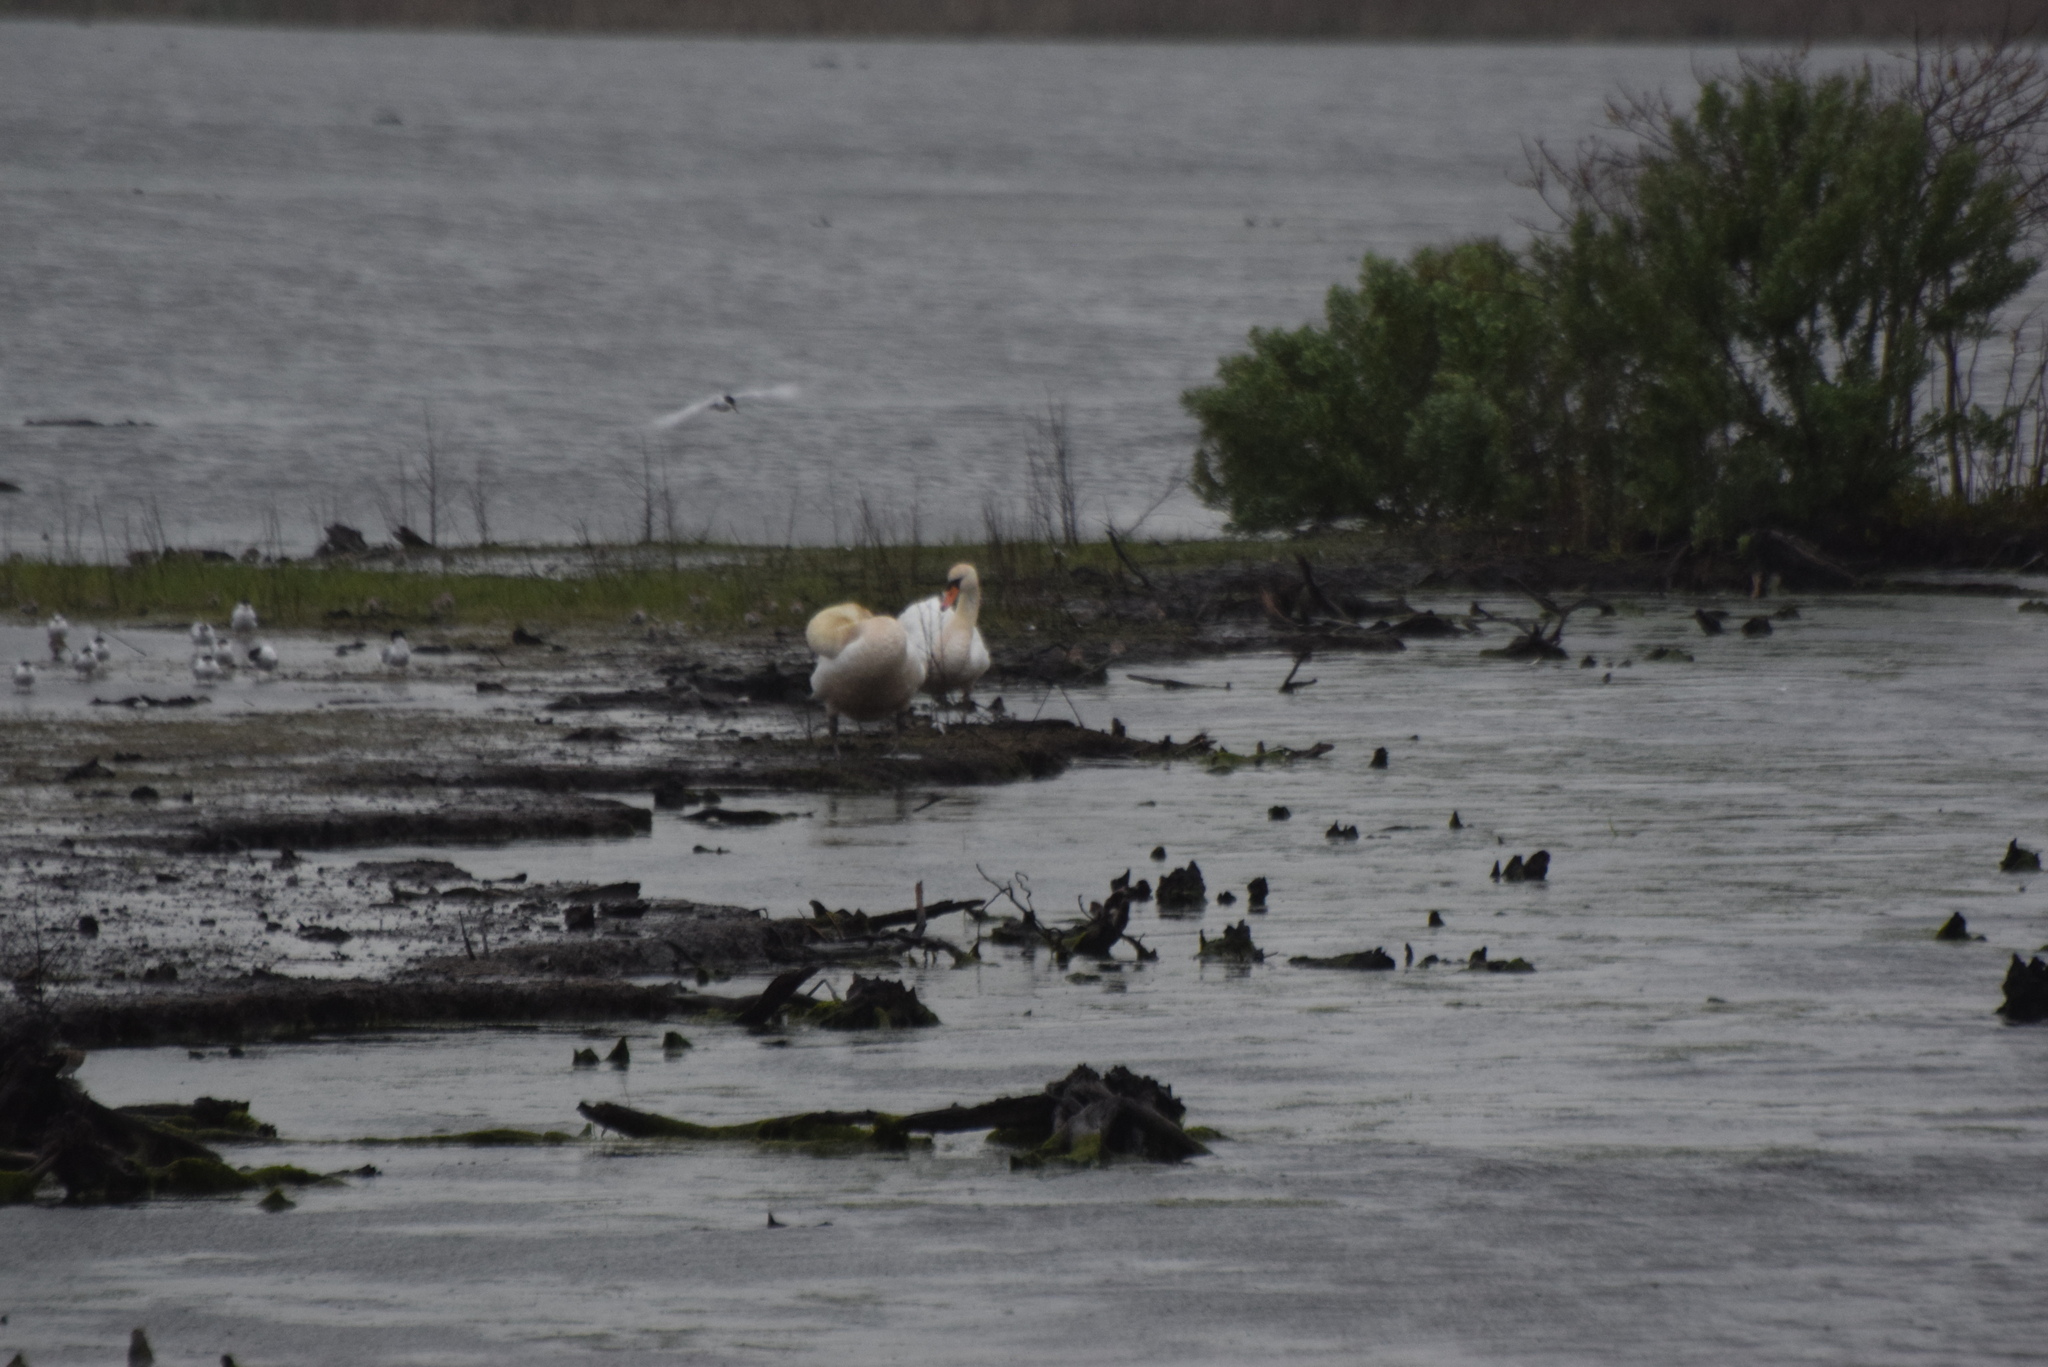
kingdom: Animalia
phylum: Chordata
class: Aves
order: Anseriformes
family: Anatidae
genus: Cygnus
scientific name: Cygnus olor
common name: Mute swan
